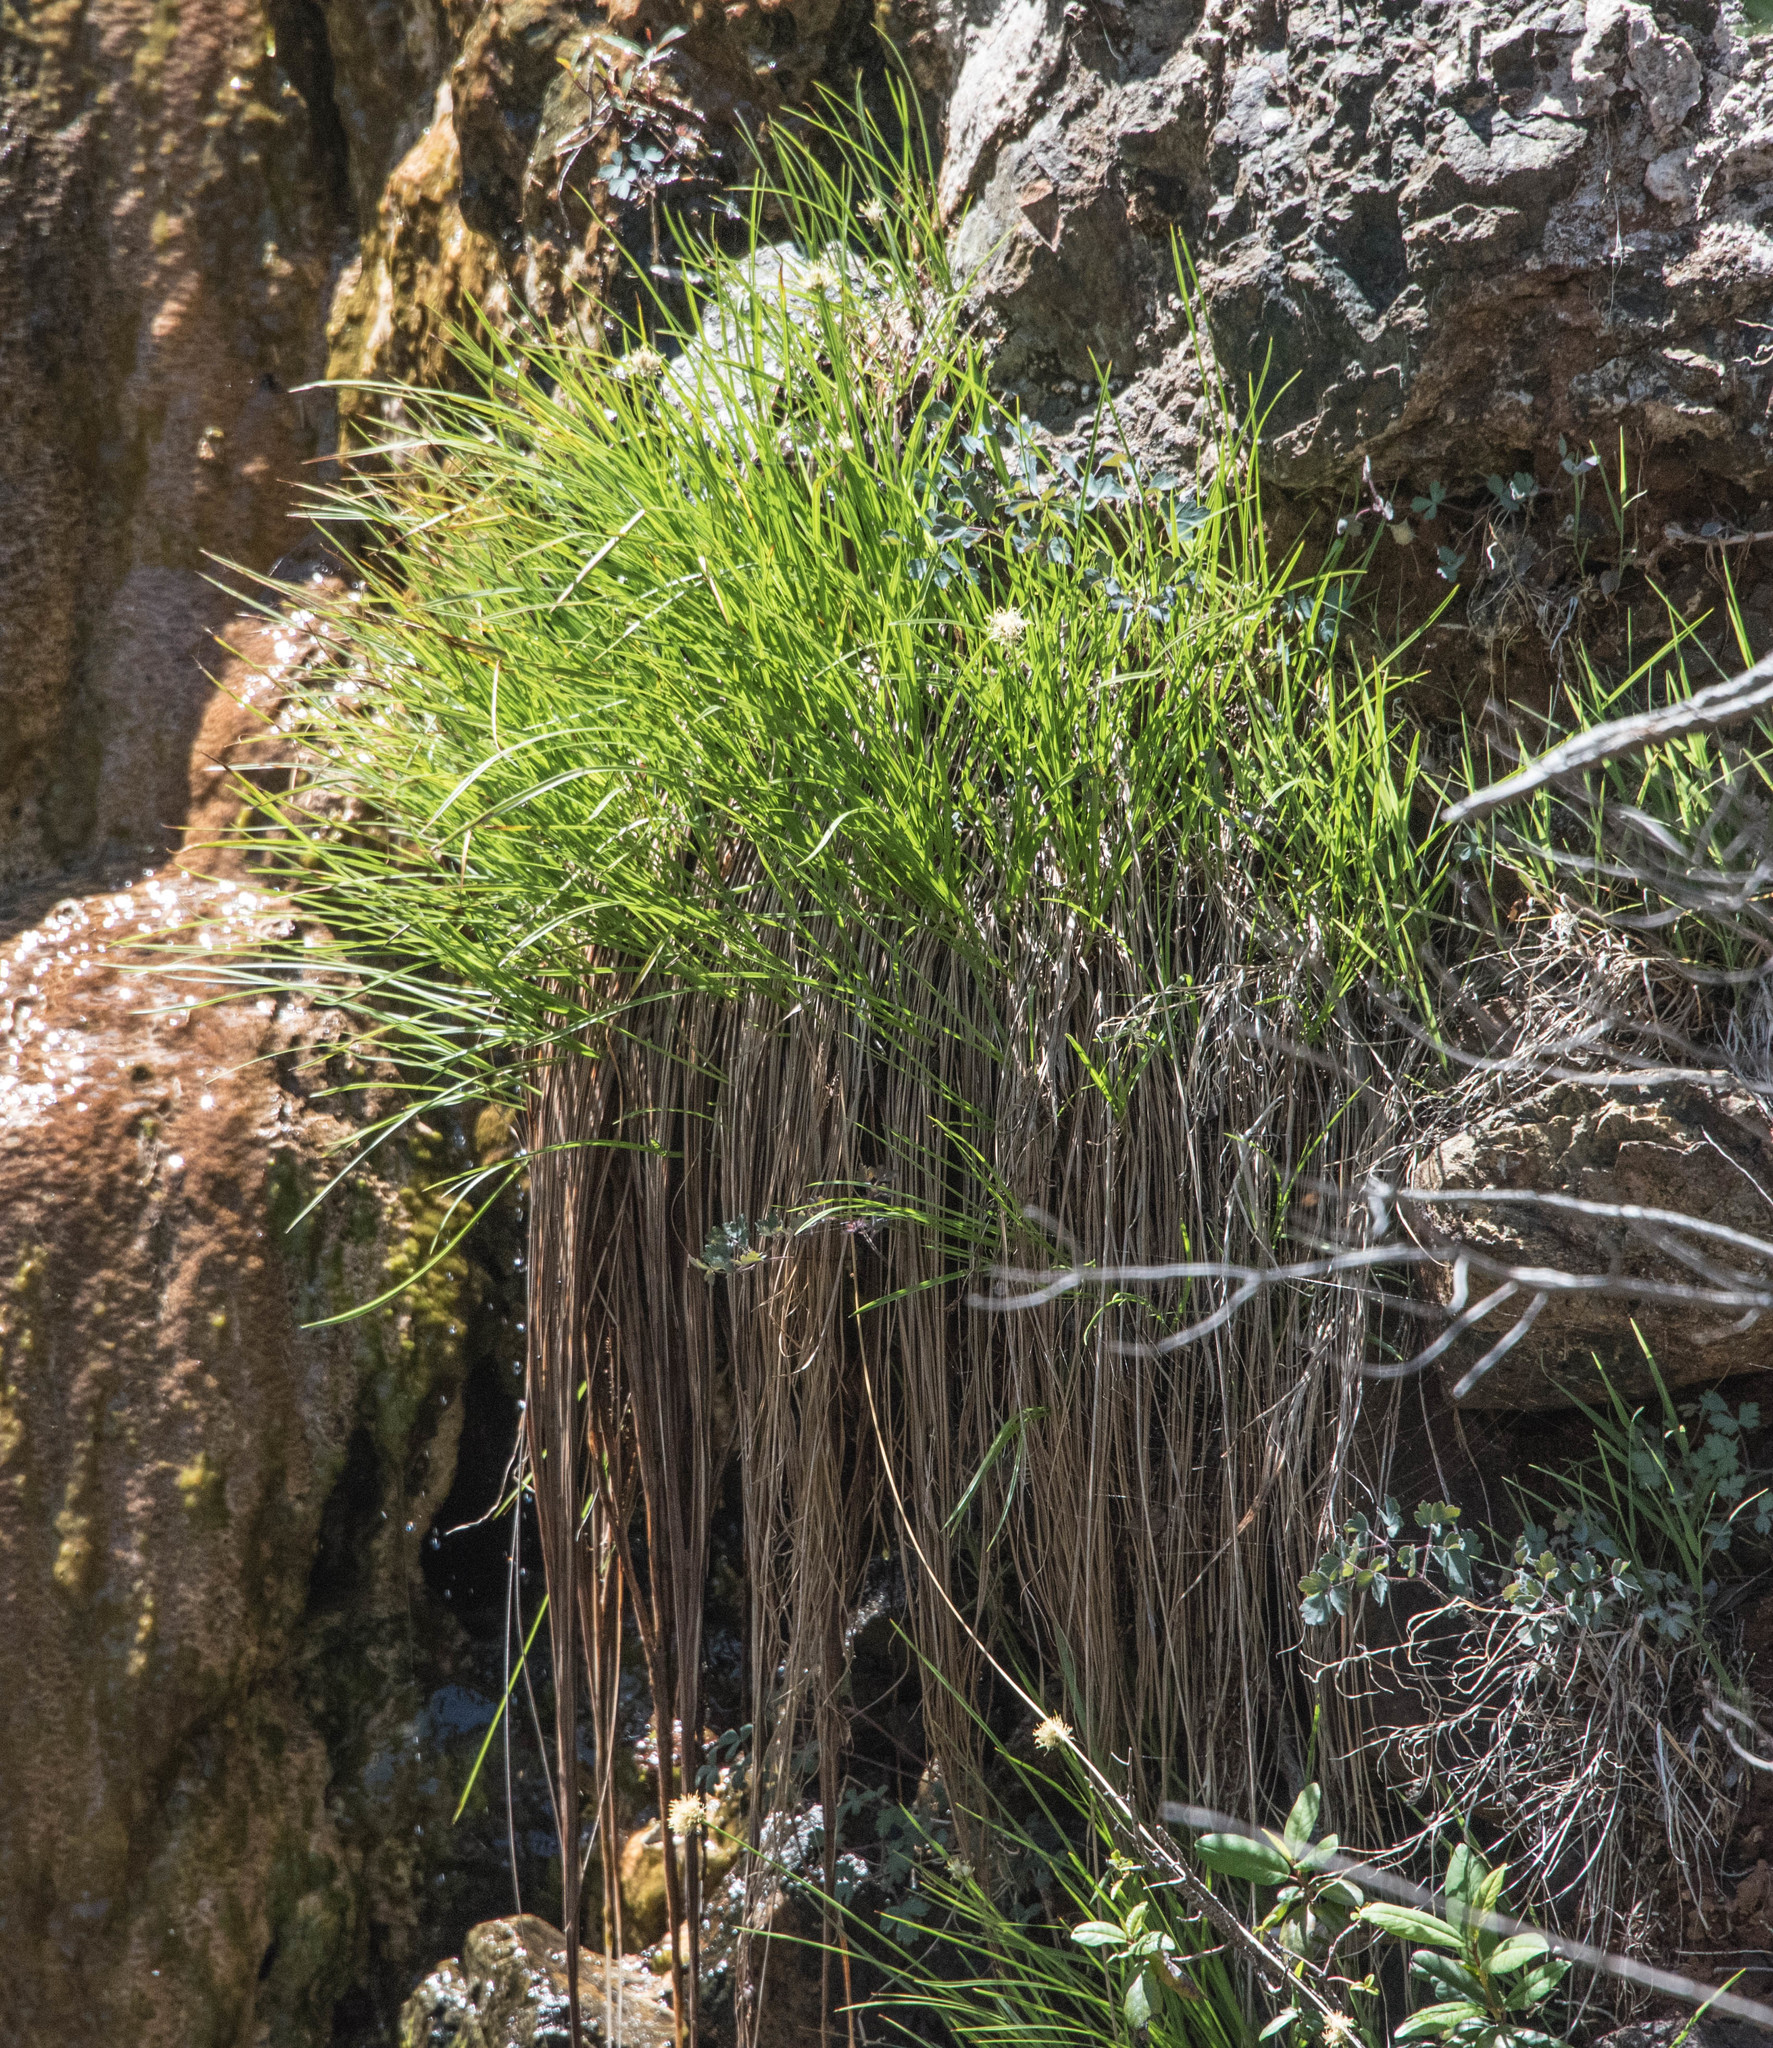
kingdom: Plantae
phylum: Tracheophyta
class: Liliopsida
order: Poales
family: Cyperaceae
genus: Calliscirpus
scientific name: Calliscirpus criniger
